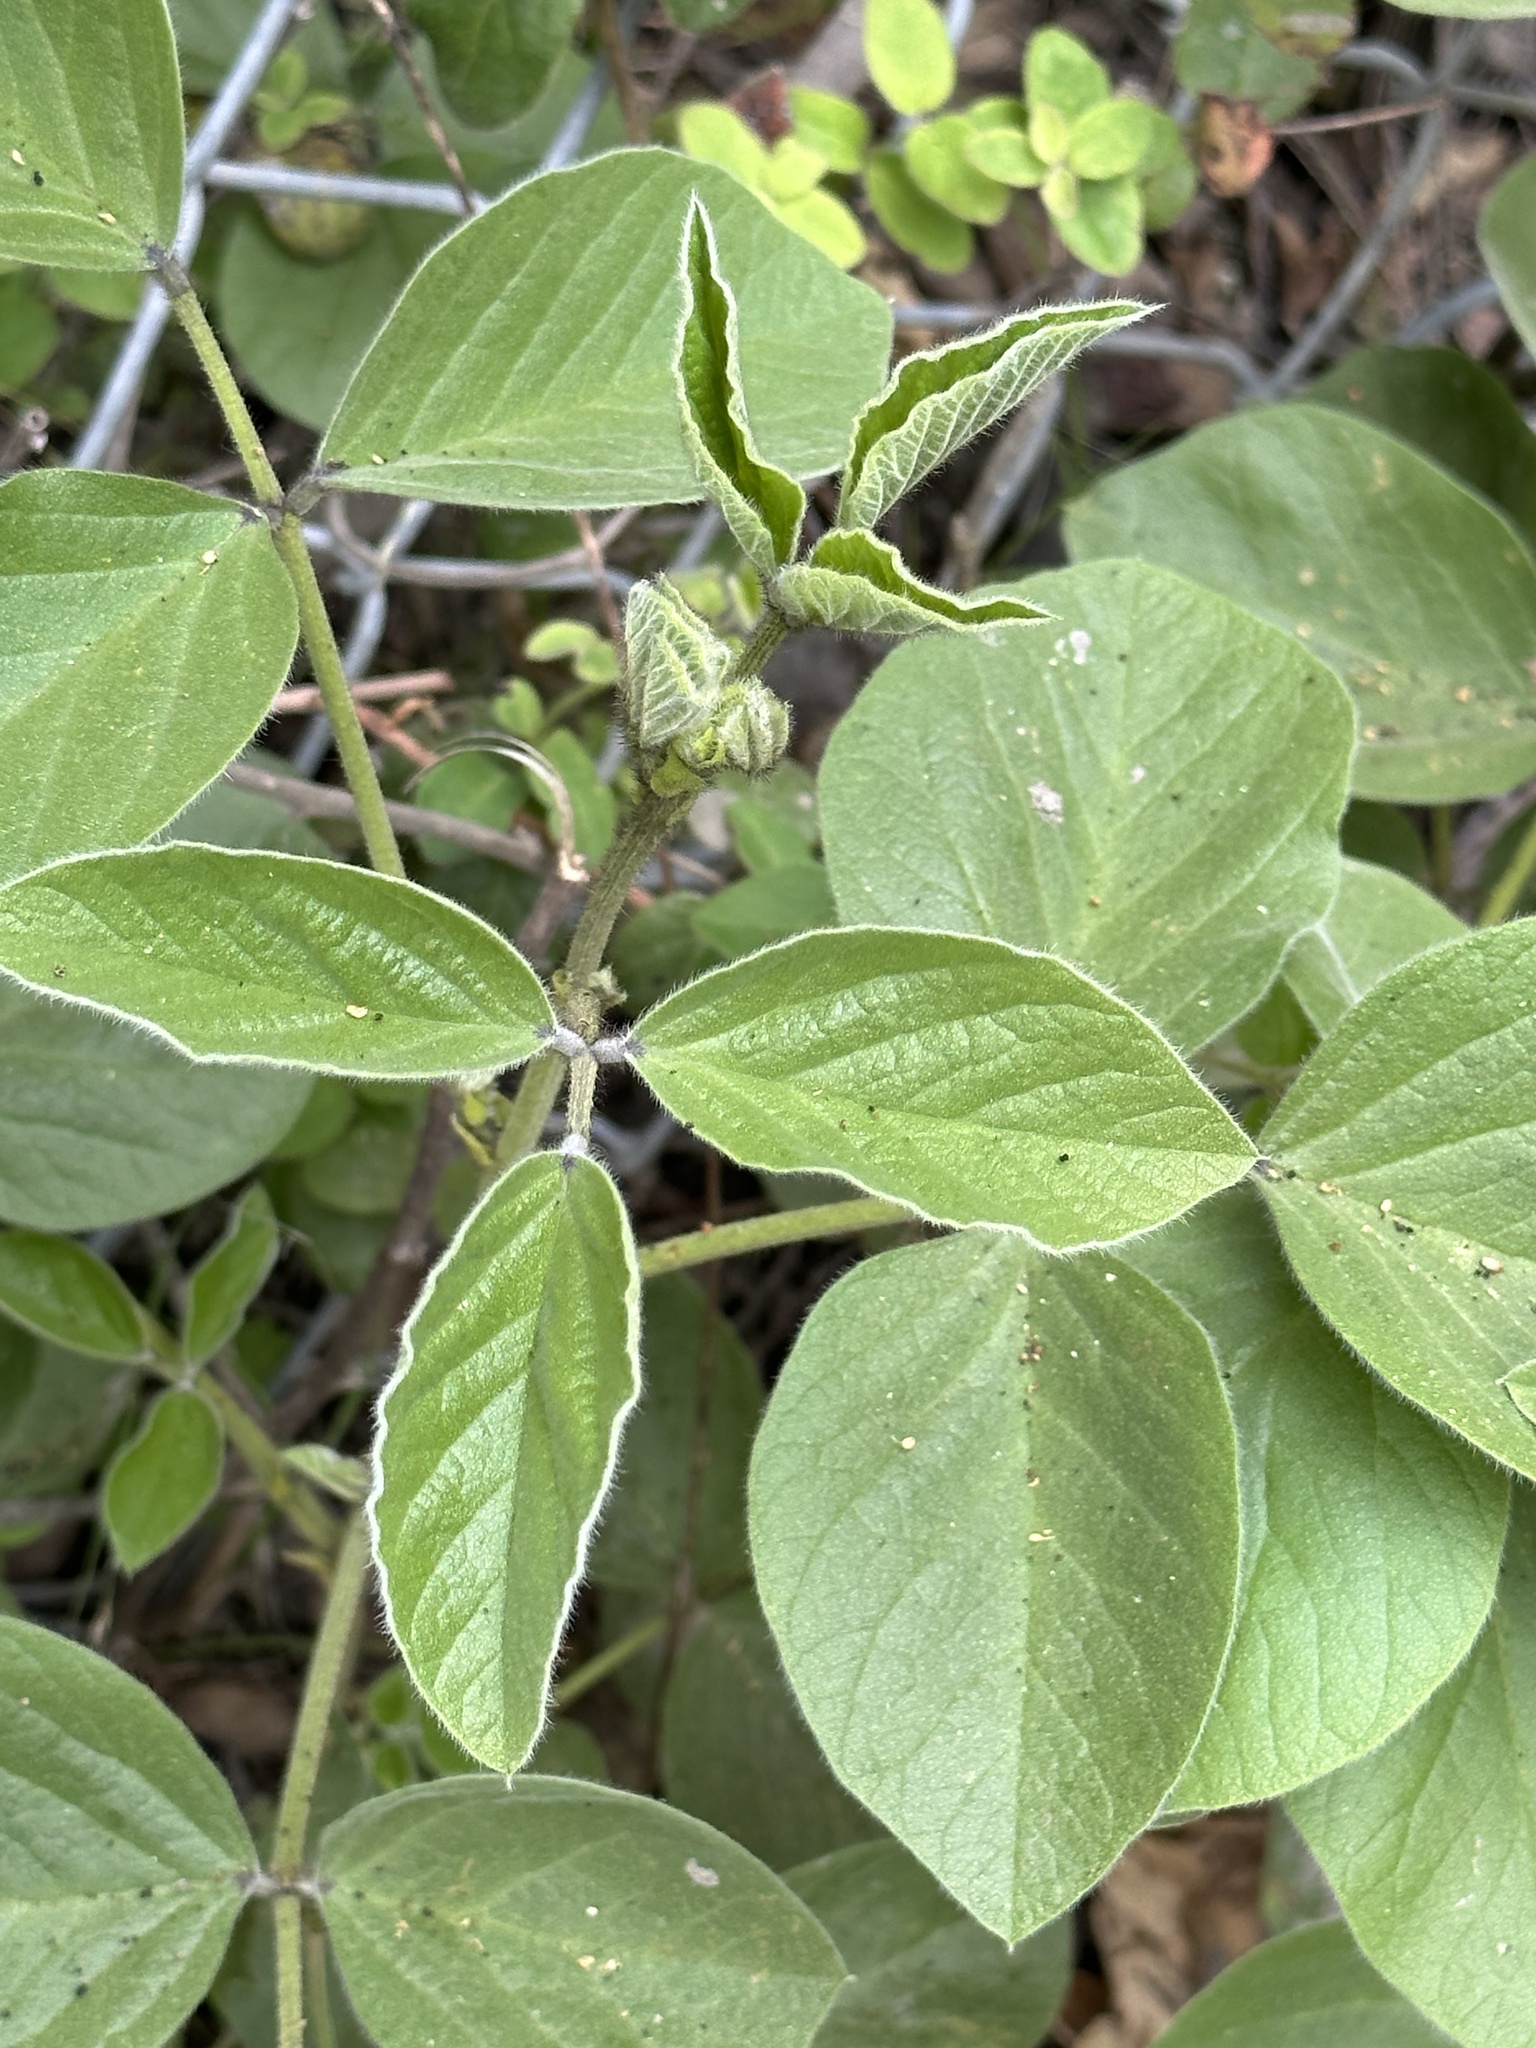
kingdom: Plantae
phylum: Tracheophyta
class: Magnoliopsida
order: Fabales
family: Fabaceae
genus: Hoita
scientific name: Hoita strobilina
